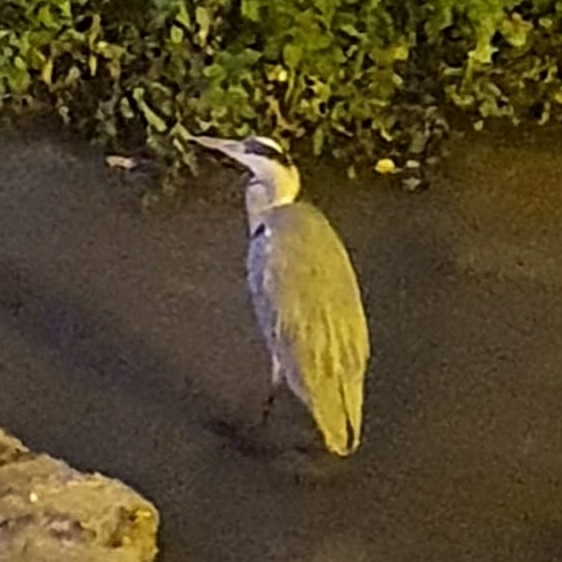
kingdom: Animalia
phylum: Chordata
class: Aves
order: Pelecaniformes
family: Ardeidae
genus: Ardea
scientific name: Ardea cinerea
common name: Grey heron
